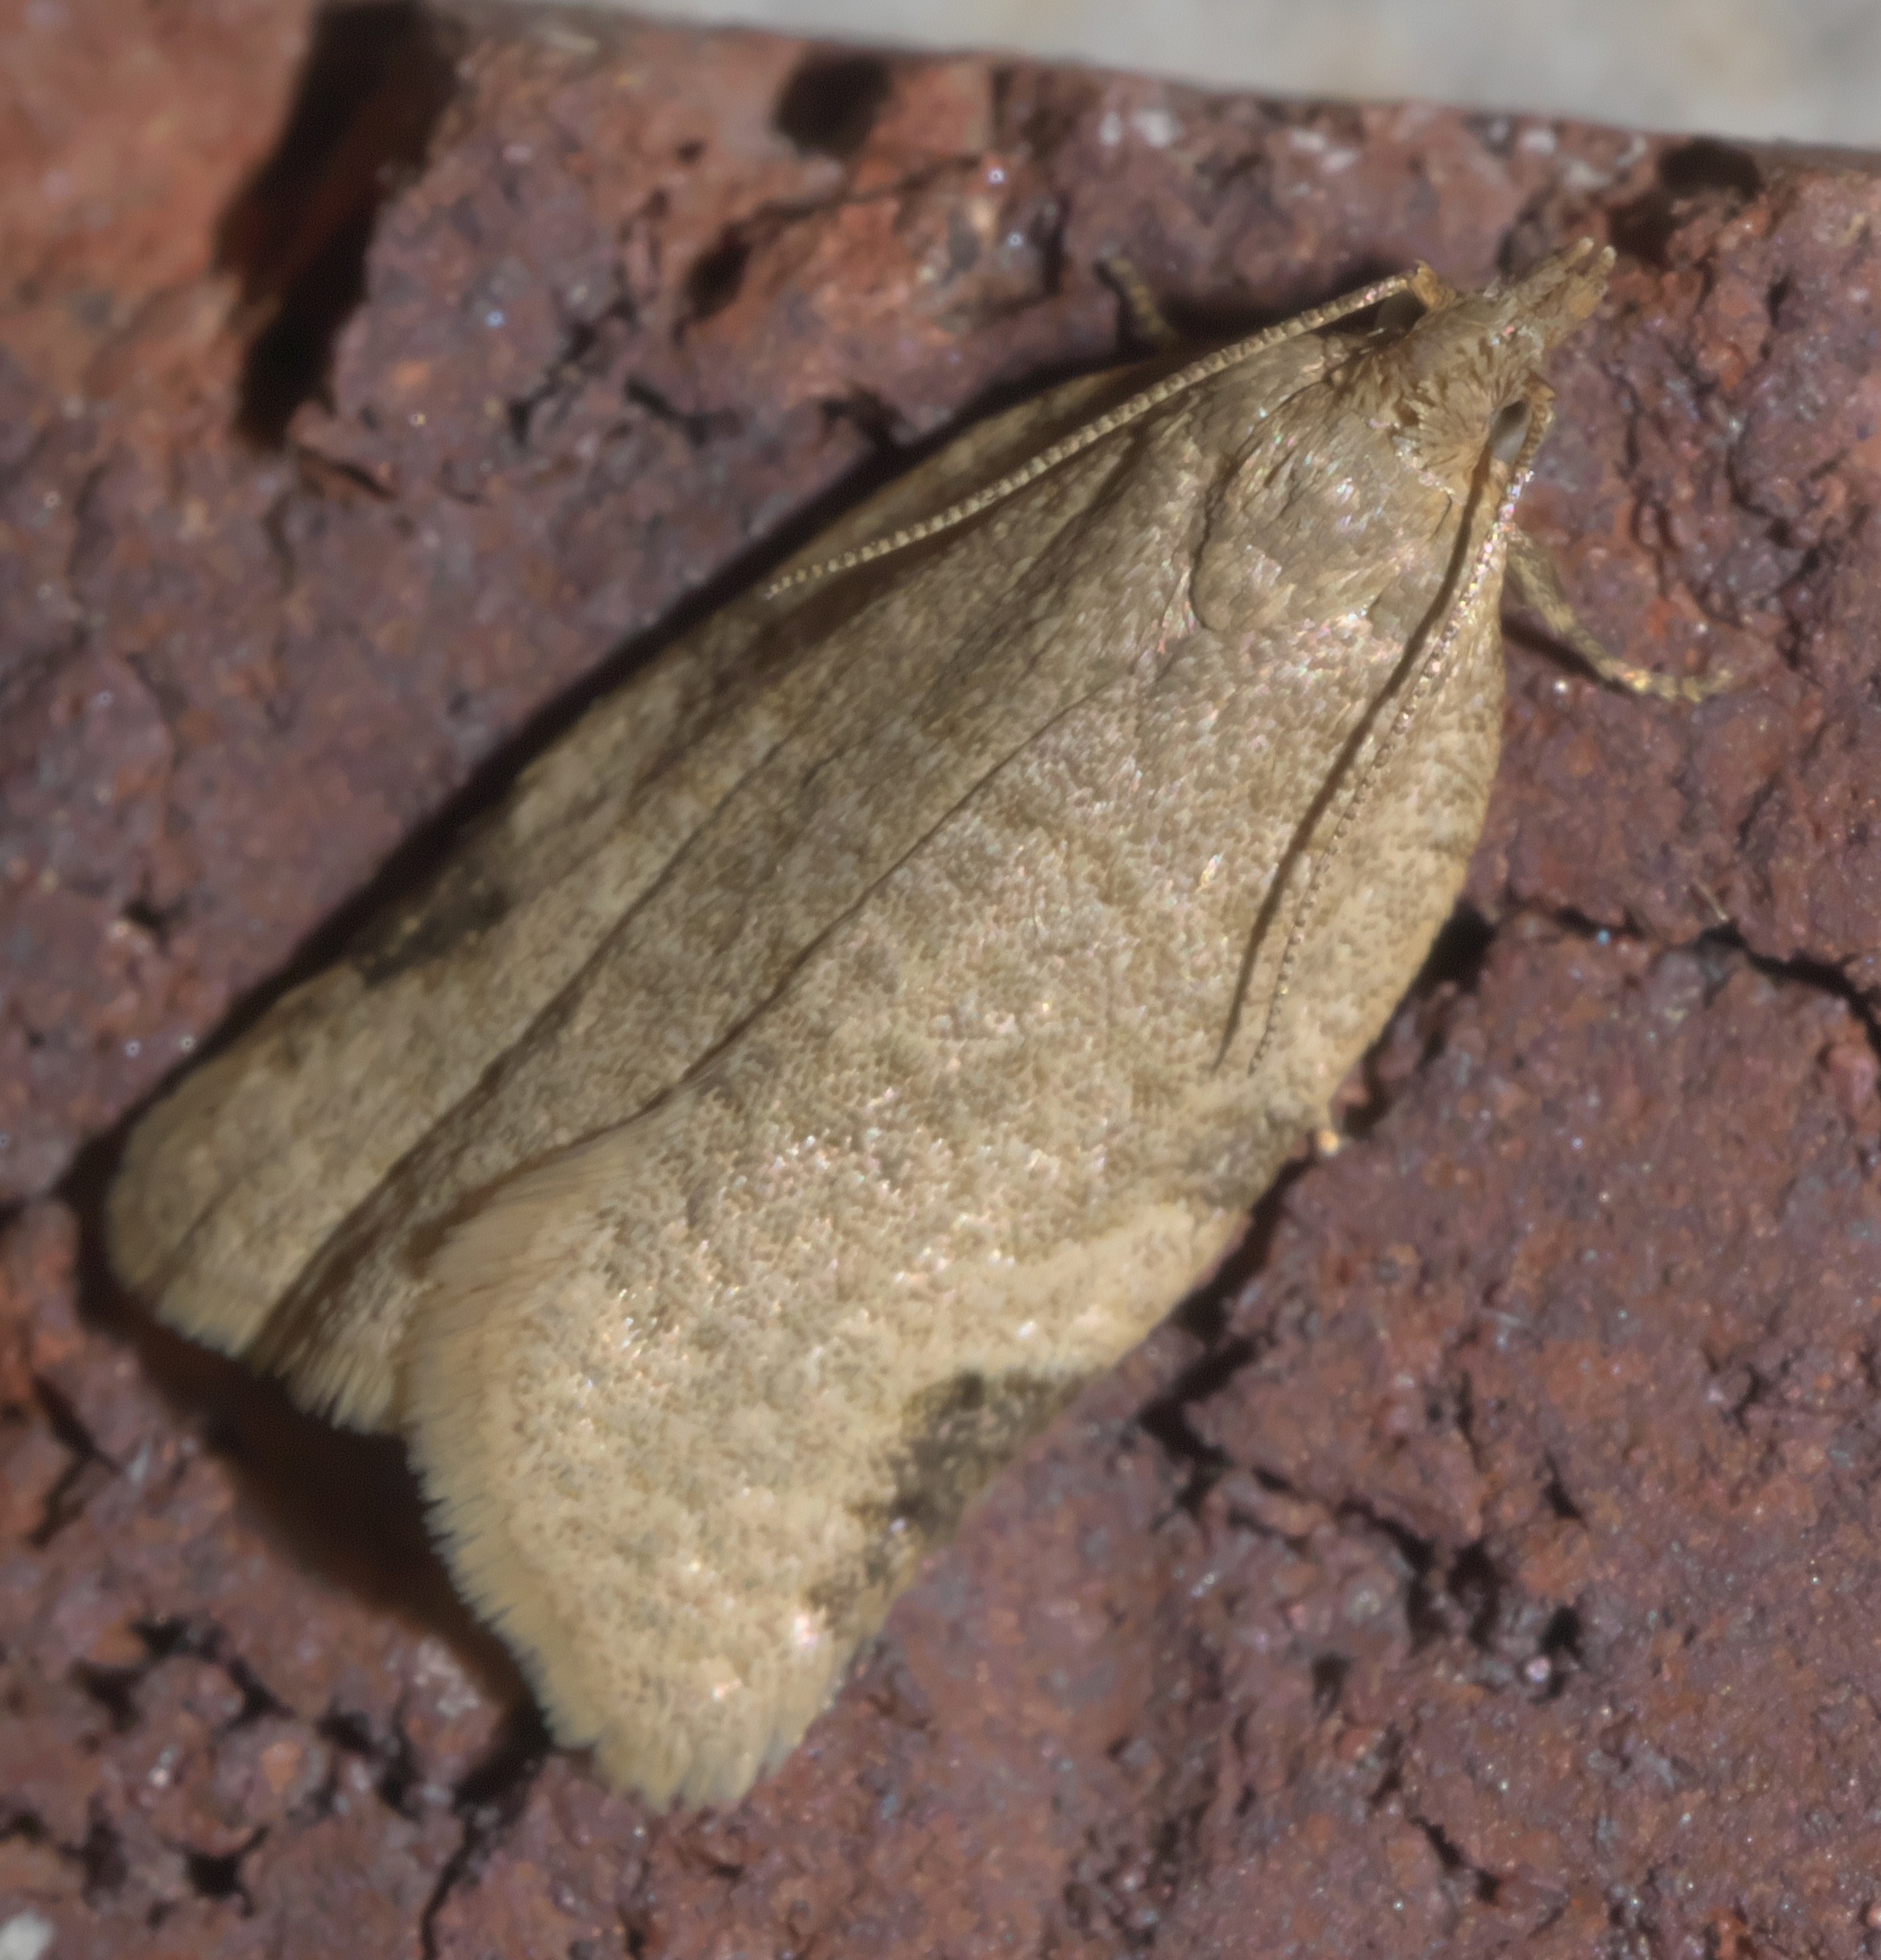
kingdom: Animalia
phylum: Arthropoda
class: Insecta
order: Lepidoptera
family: Tortricidae
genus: Clepsis
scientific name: Clepsis virescana
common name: Greenish apple moth
